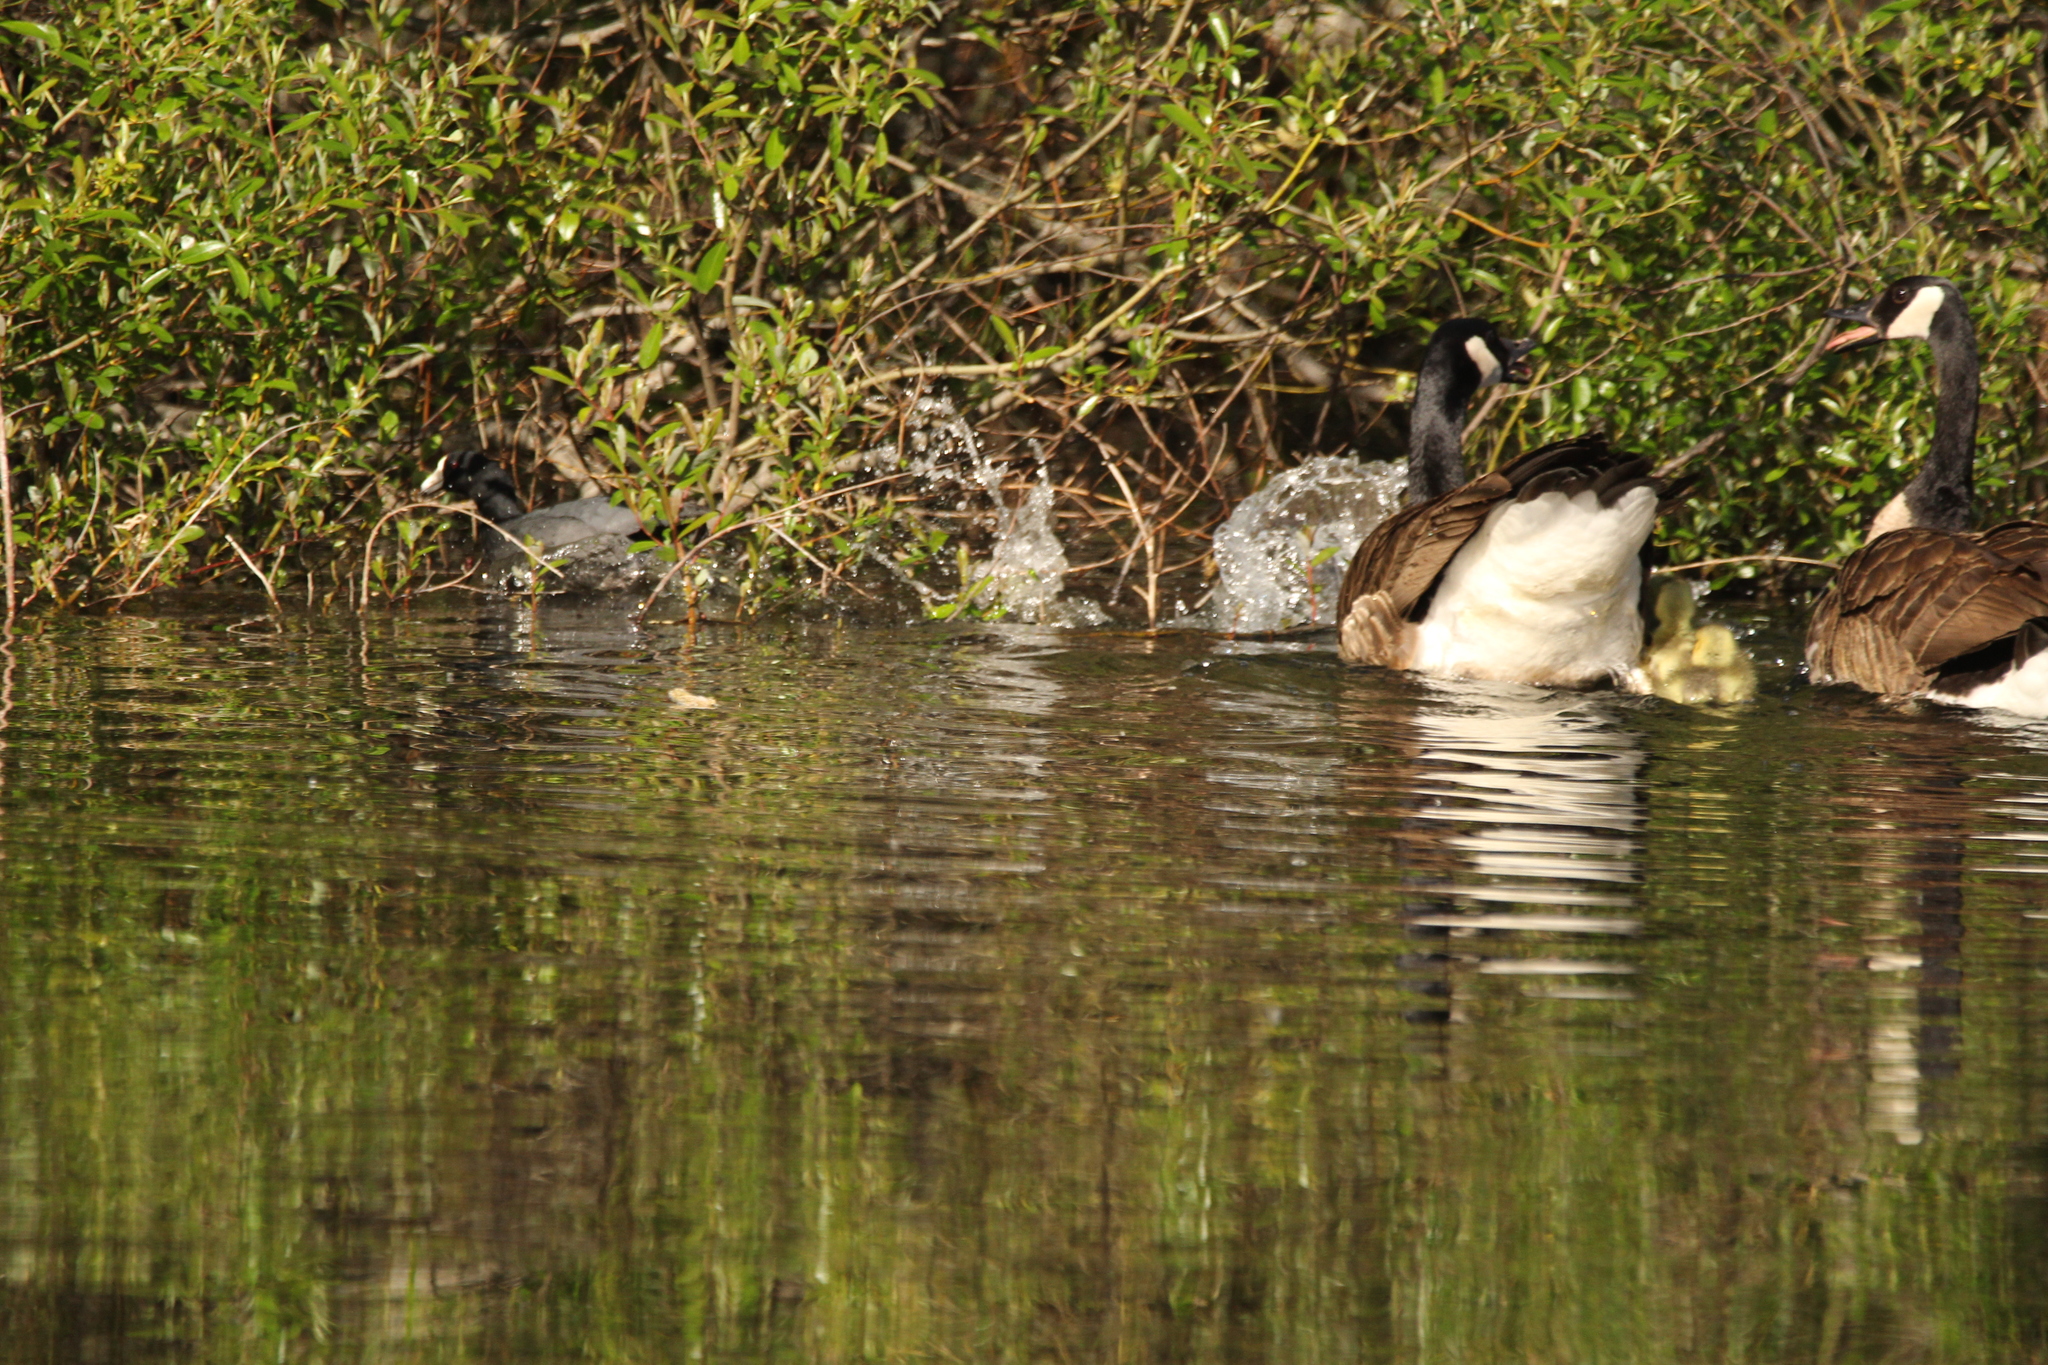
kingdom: Animalia
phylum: Chordata
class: Aves
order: Anseriformes
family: Anatidae
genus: Branta
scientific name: Branta canadensis
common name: Canada goose
